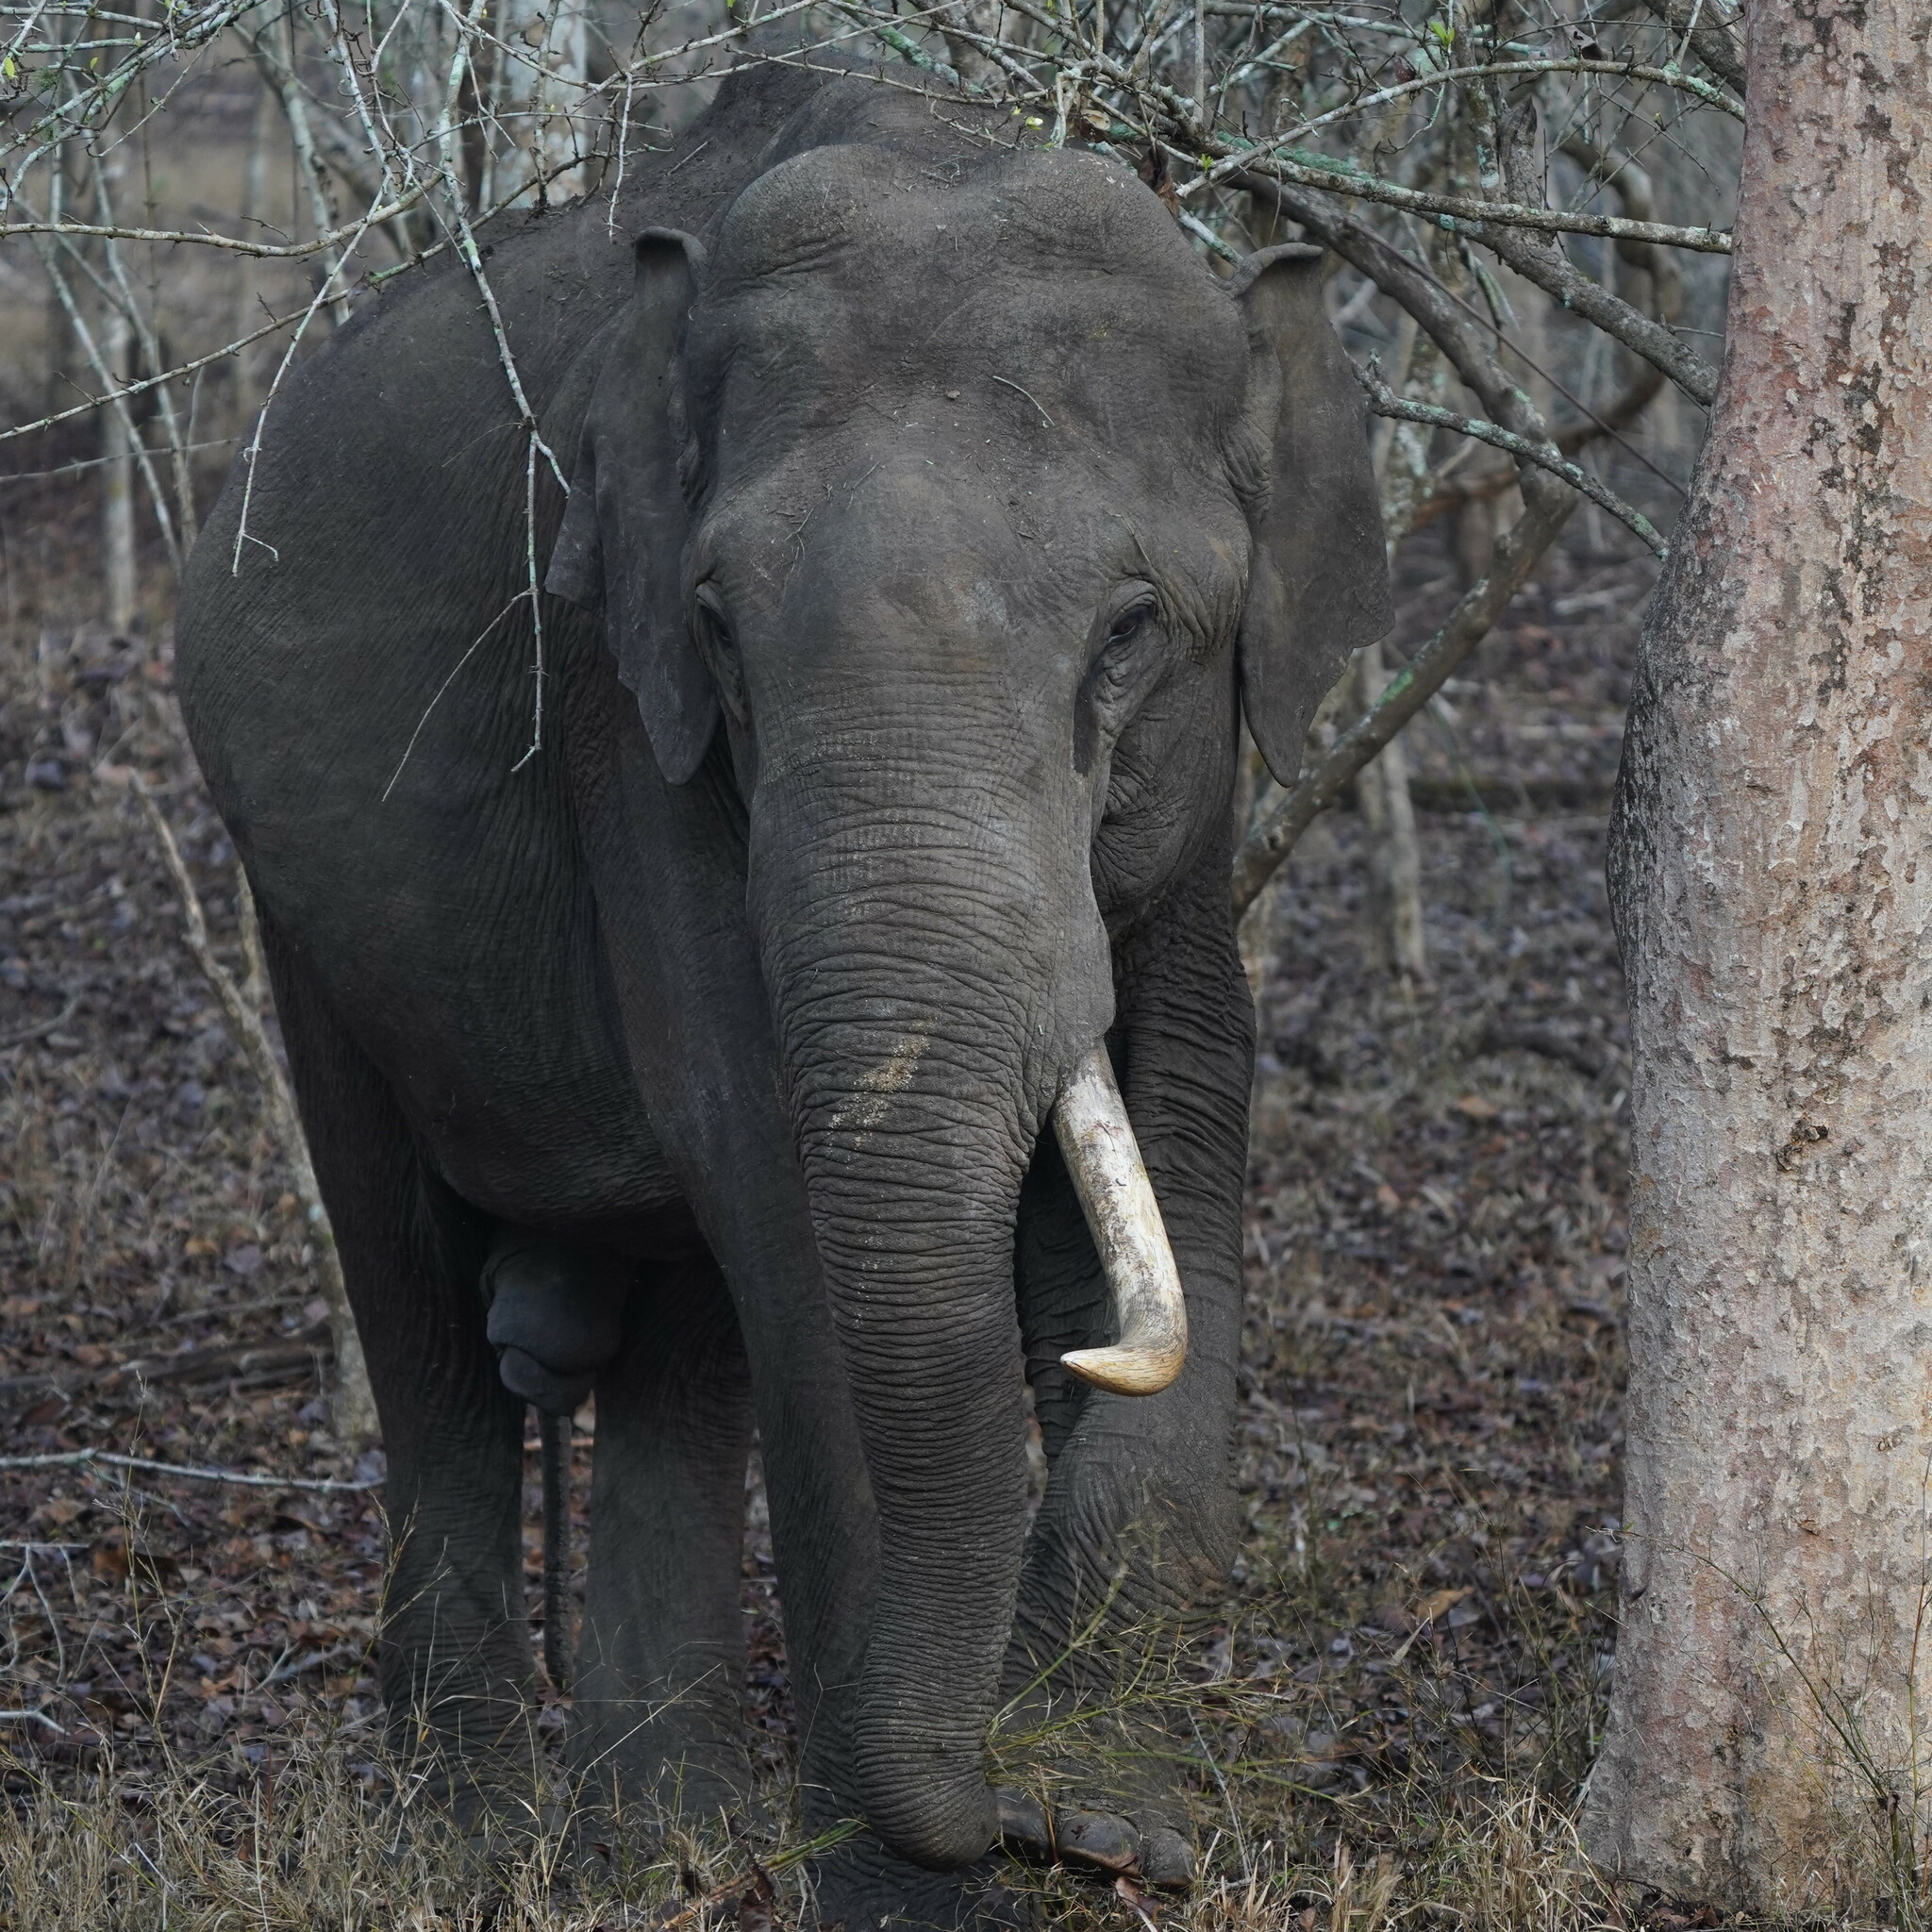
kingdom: Animalia
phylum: Chordata
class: Mammalia
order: Proboscidea
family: Elephantidae
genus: Elephas
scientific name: Elephas maximus
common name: Asian elephant
